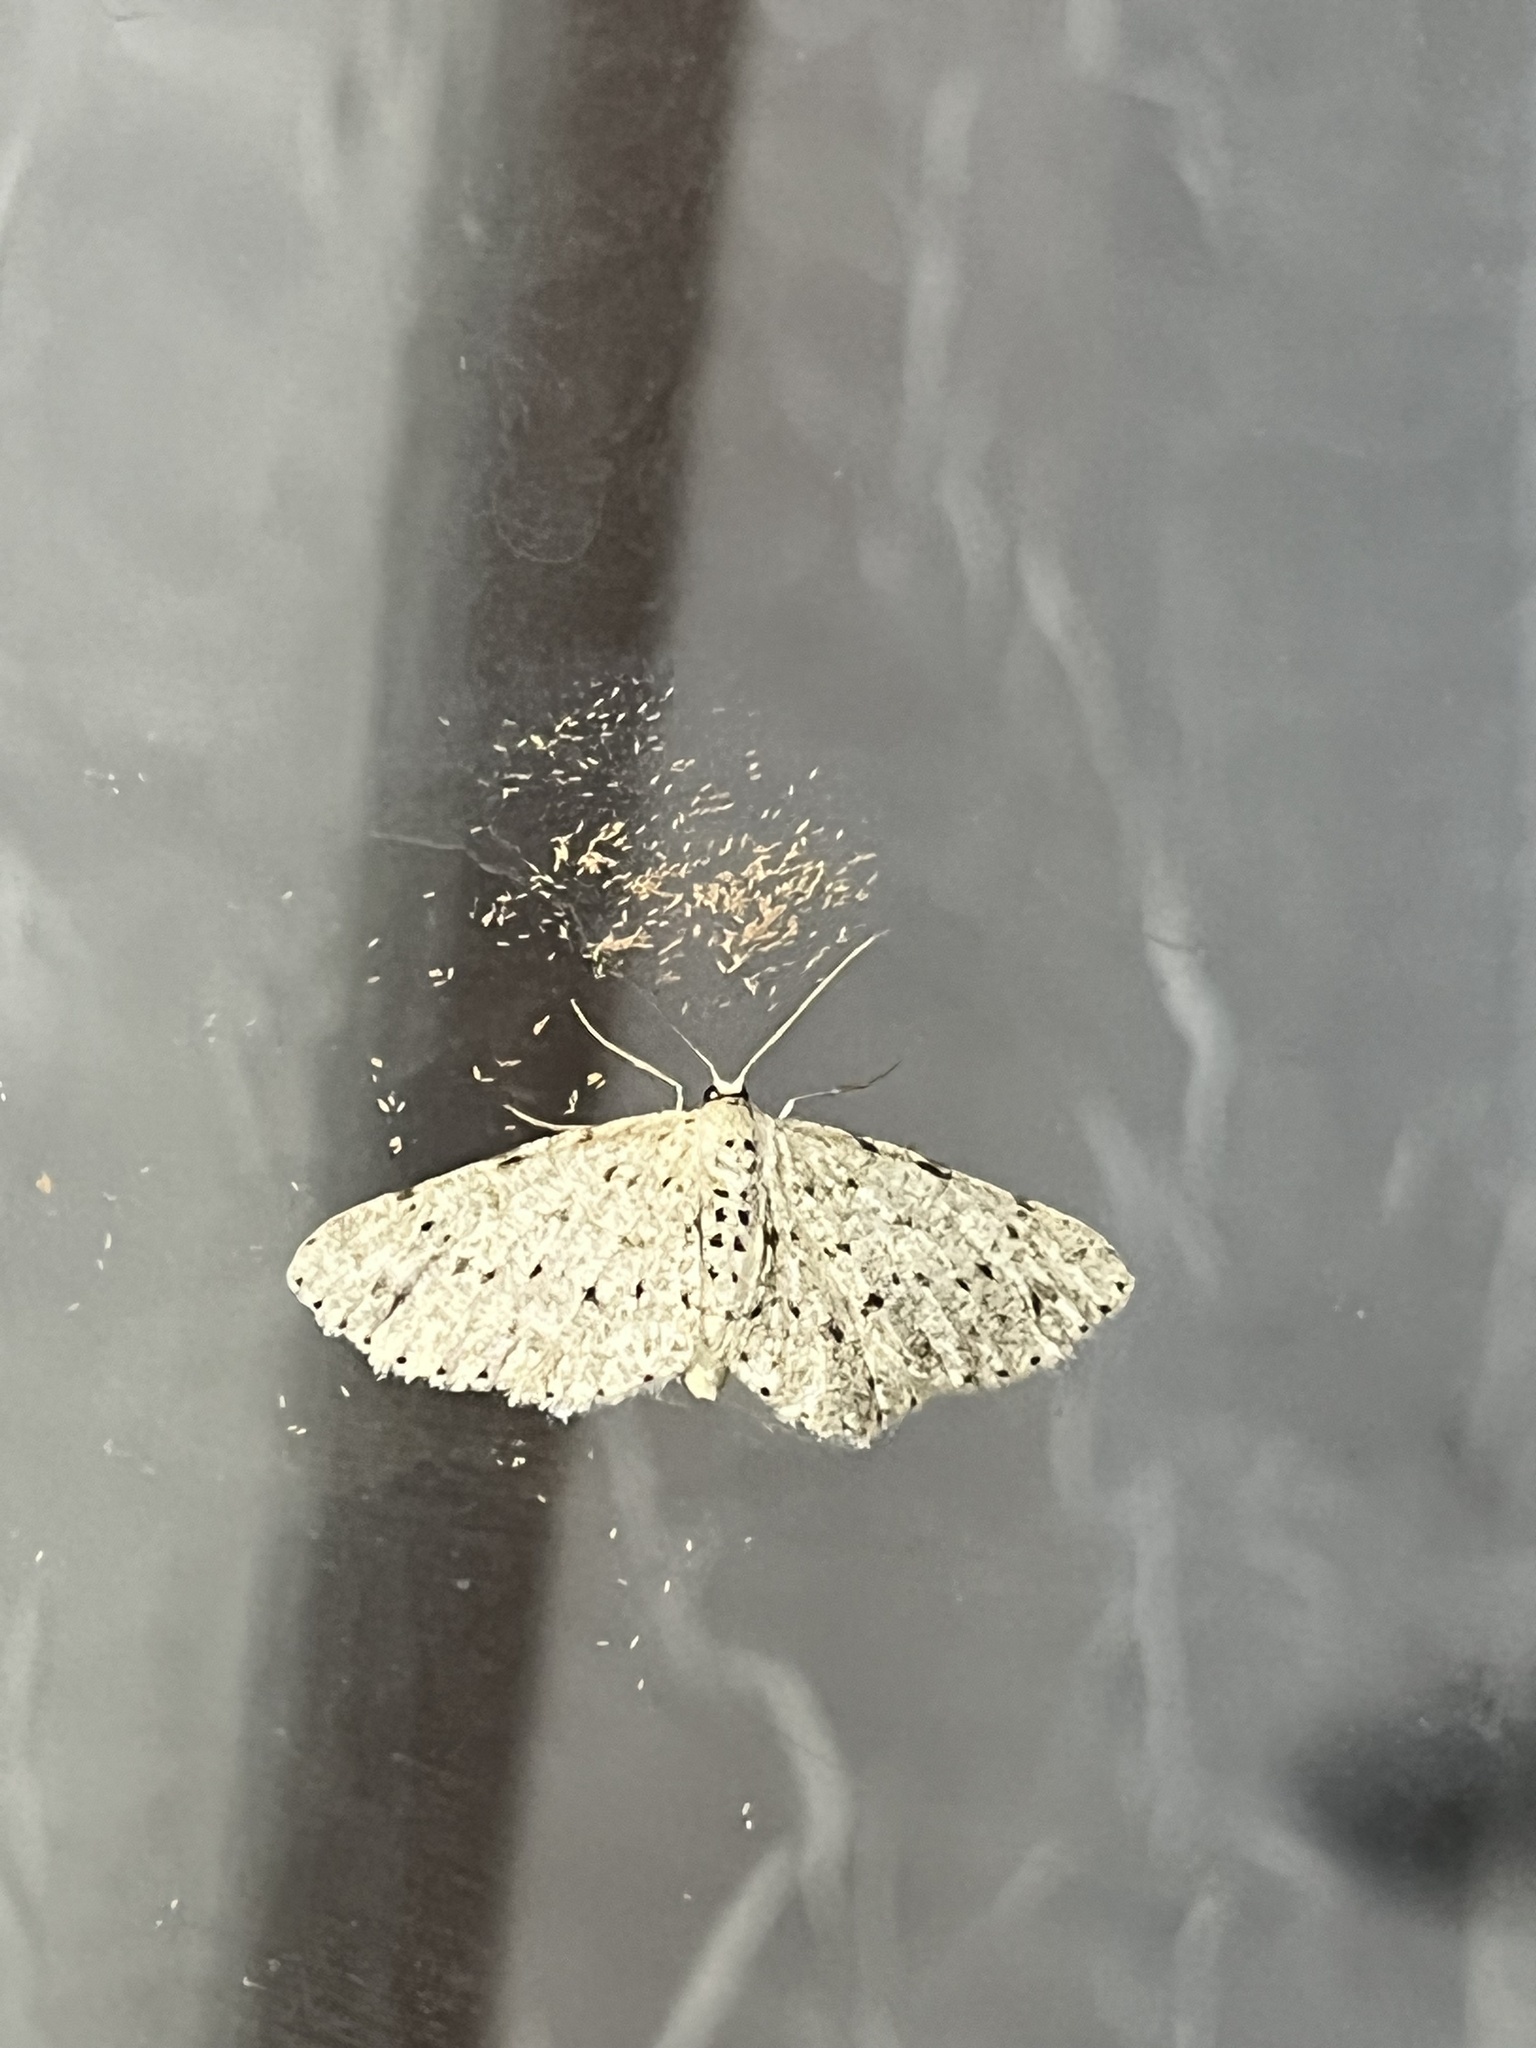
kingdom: Animalia
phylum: Arthropoda
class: Insecta
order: Lepidoptera
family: Geometridae
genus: Glena
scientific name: Glena cribrataria
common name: Dotted gray
